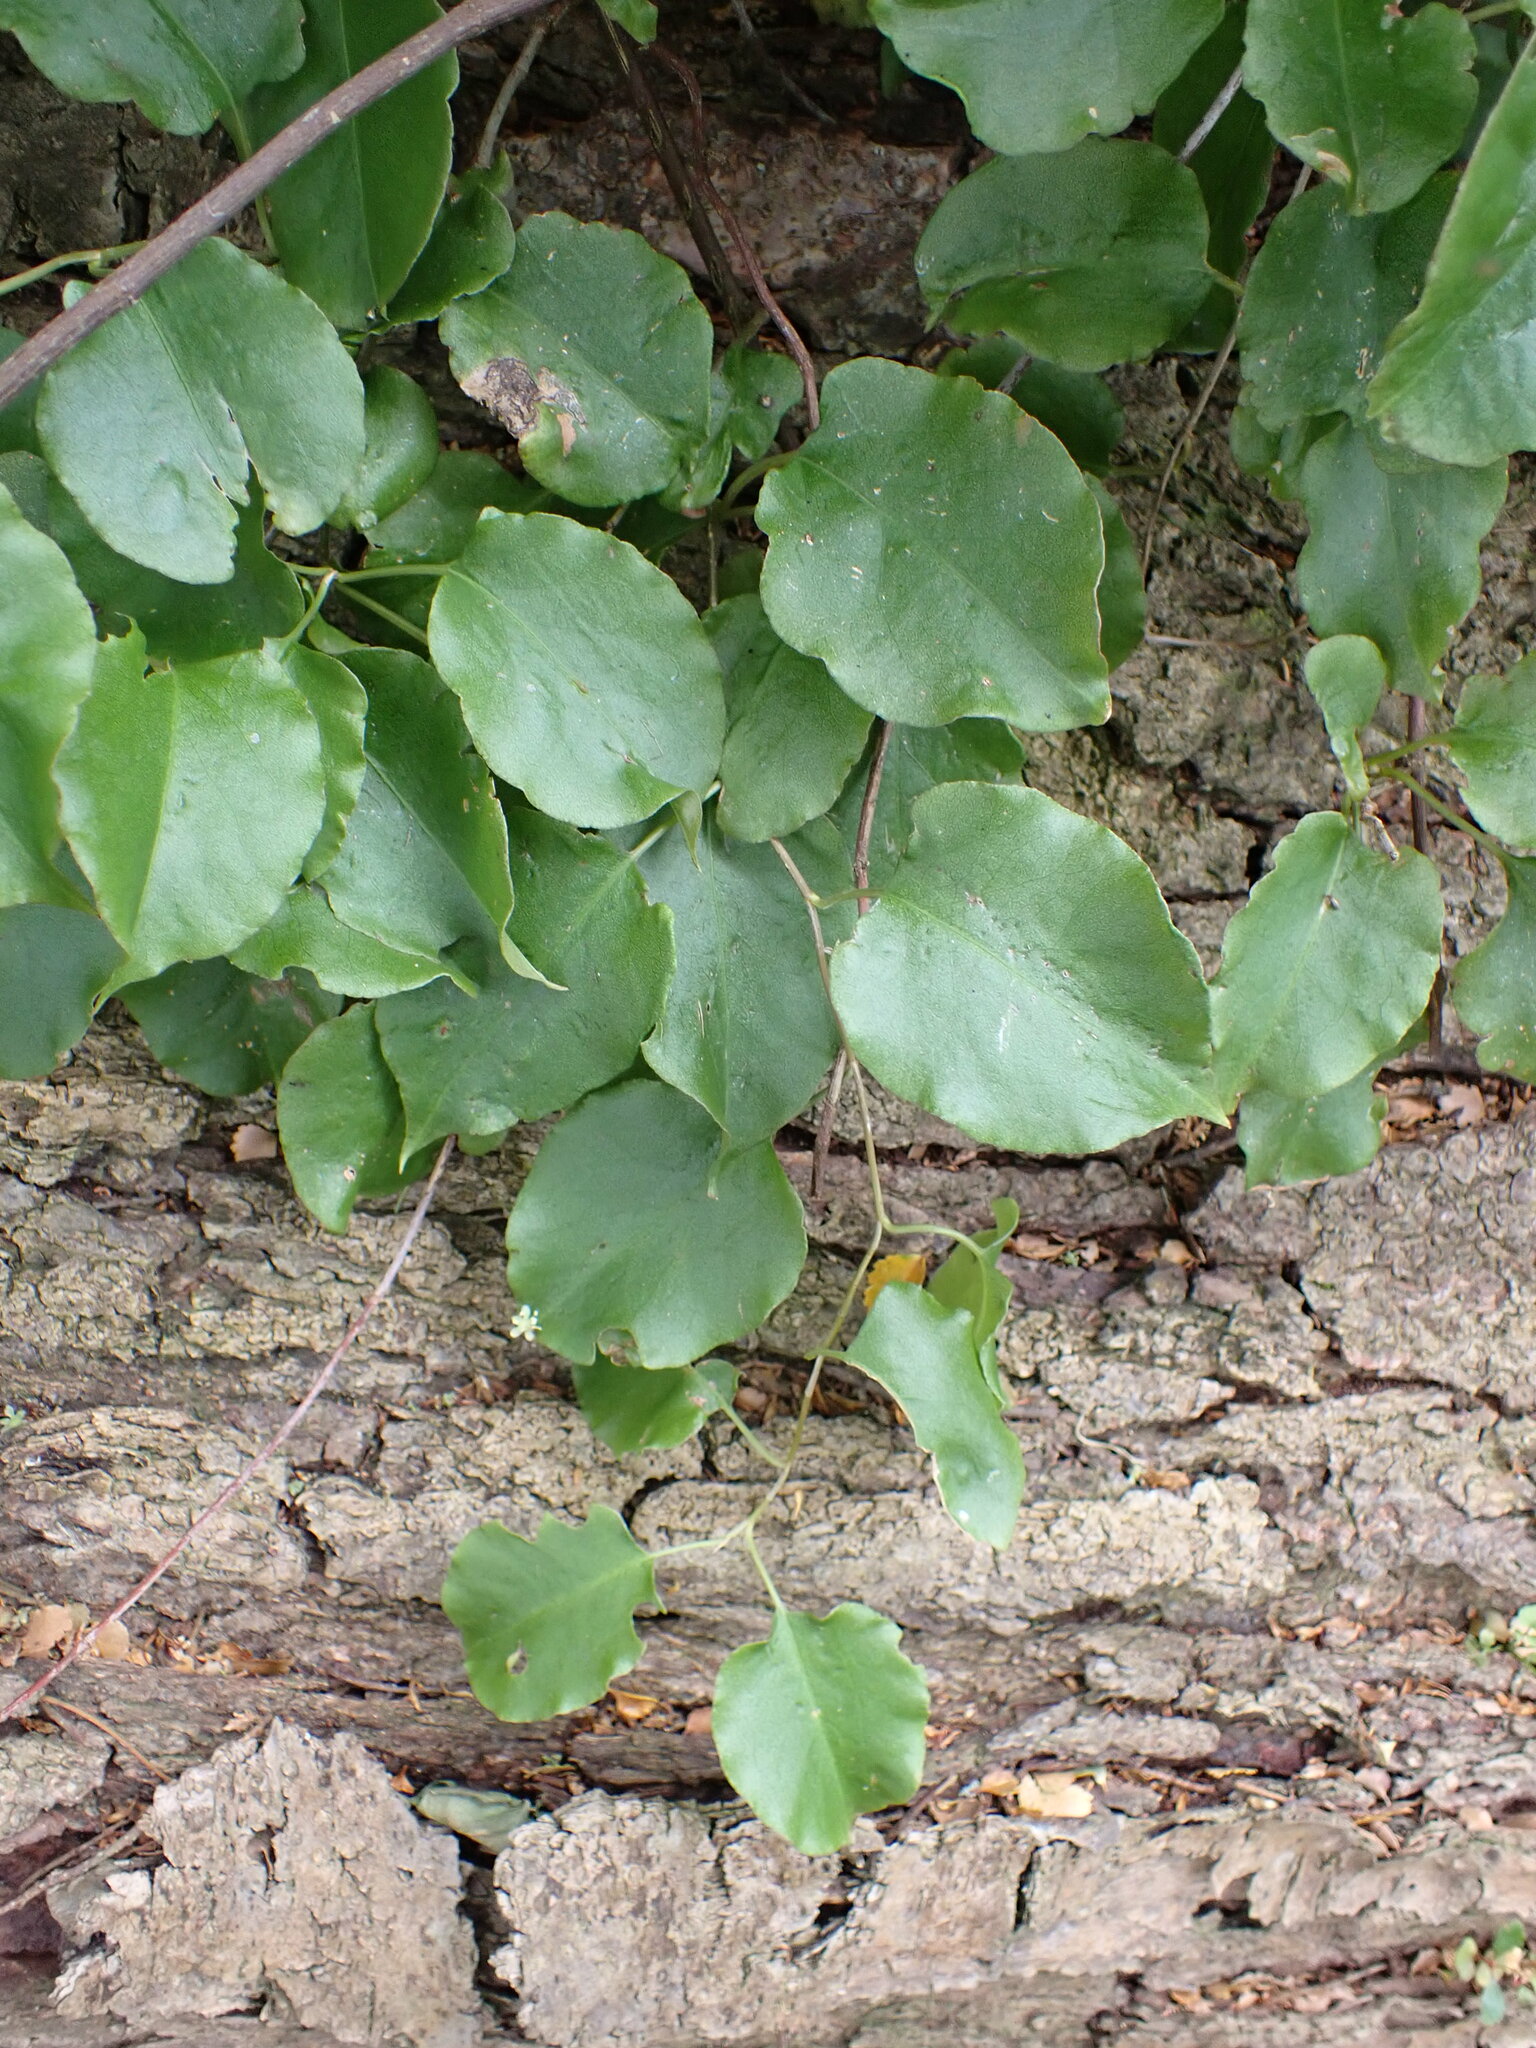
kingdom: Plantae
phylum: Tracheophyta
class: Magnoliopsida
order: Caryophyllales
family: Polygonaceae
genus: Muehlenbeckia
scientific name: Muehlenbeckia australis
